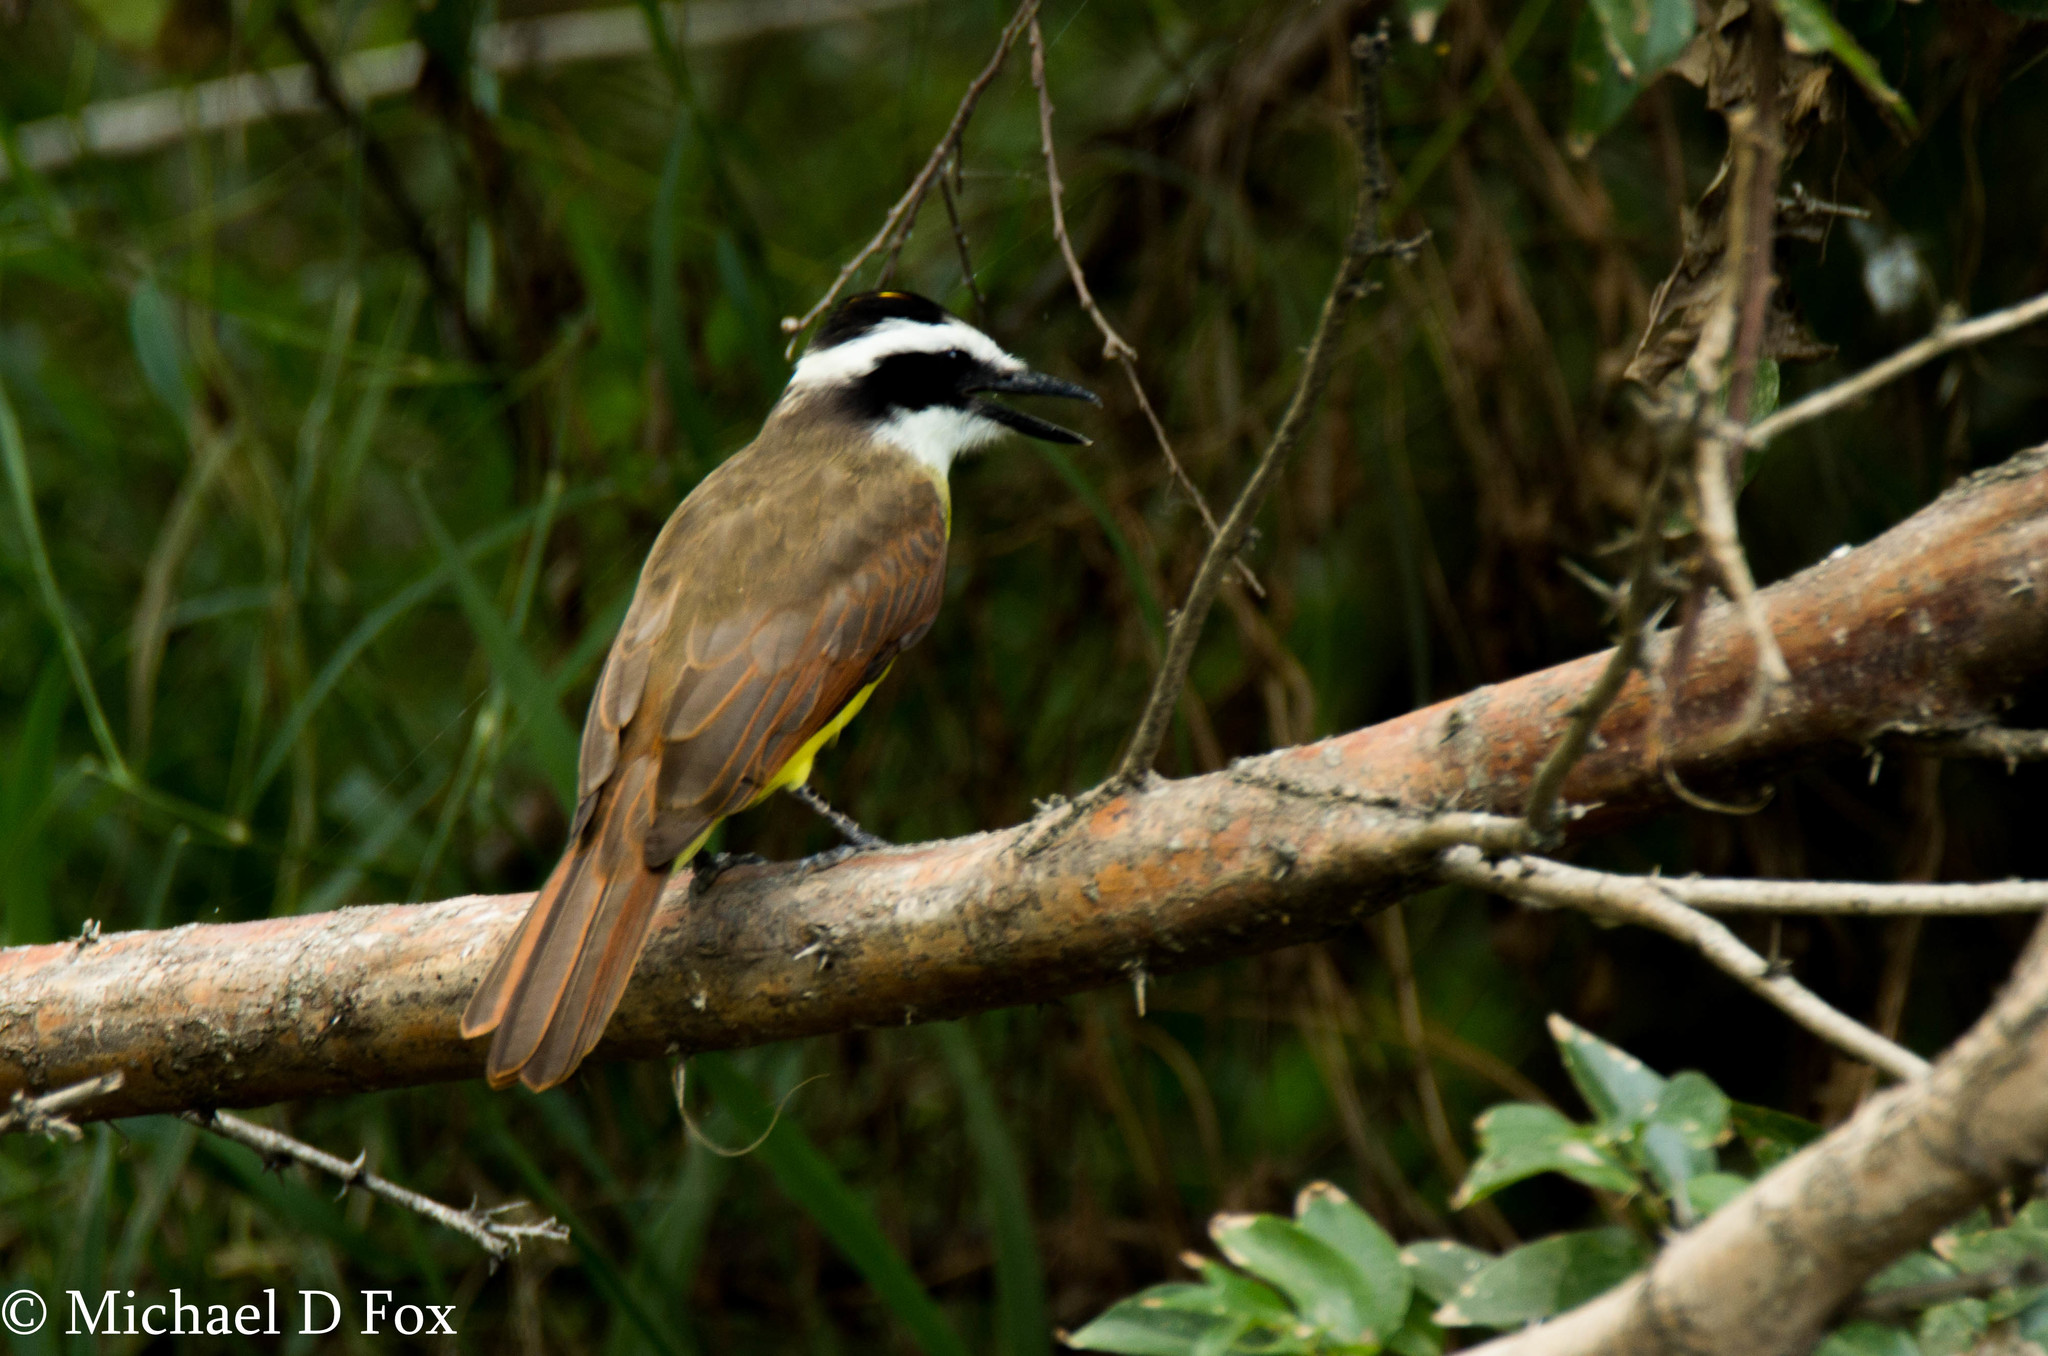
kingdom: Animalia
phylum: Chordata
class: Aves
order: Passeriformes
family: Tyrannidae
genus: Pitangus
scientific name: Pitangus sulphuratus
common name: Great kiskadee
